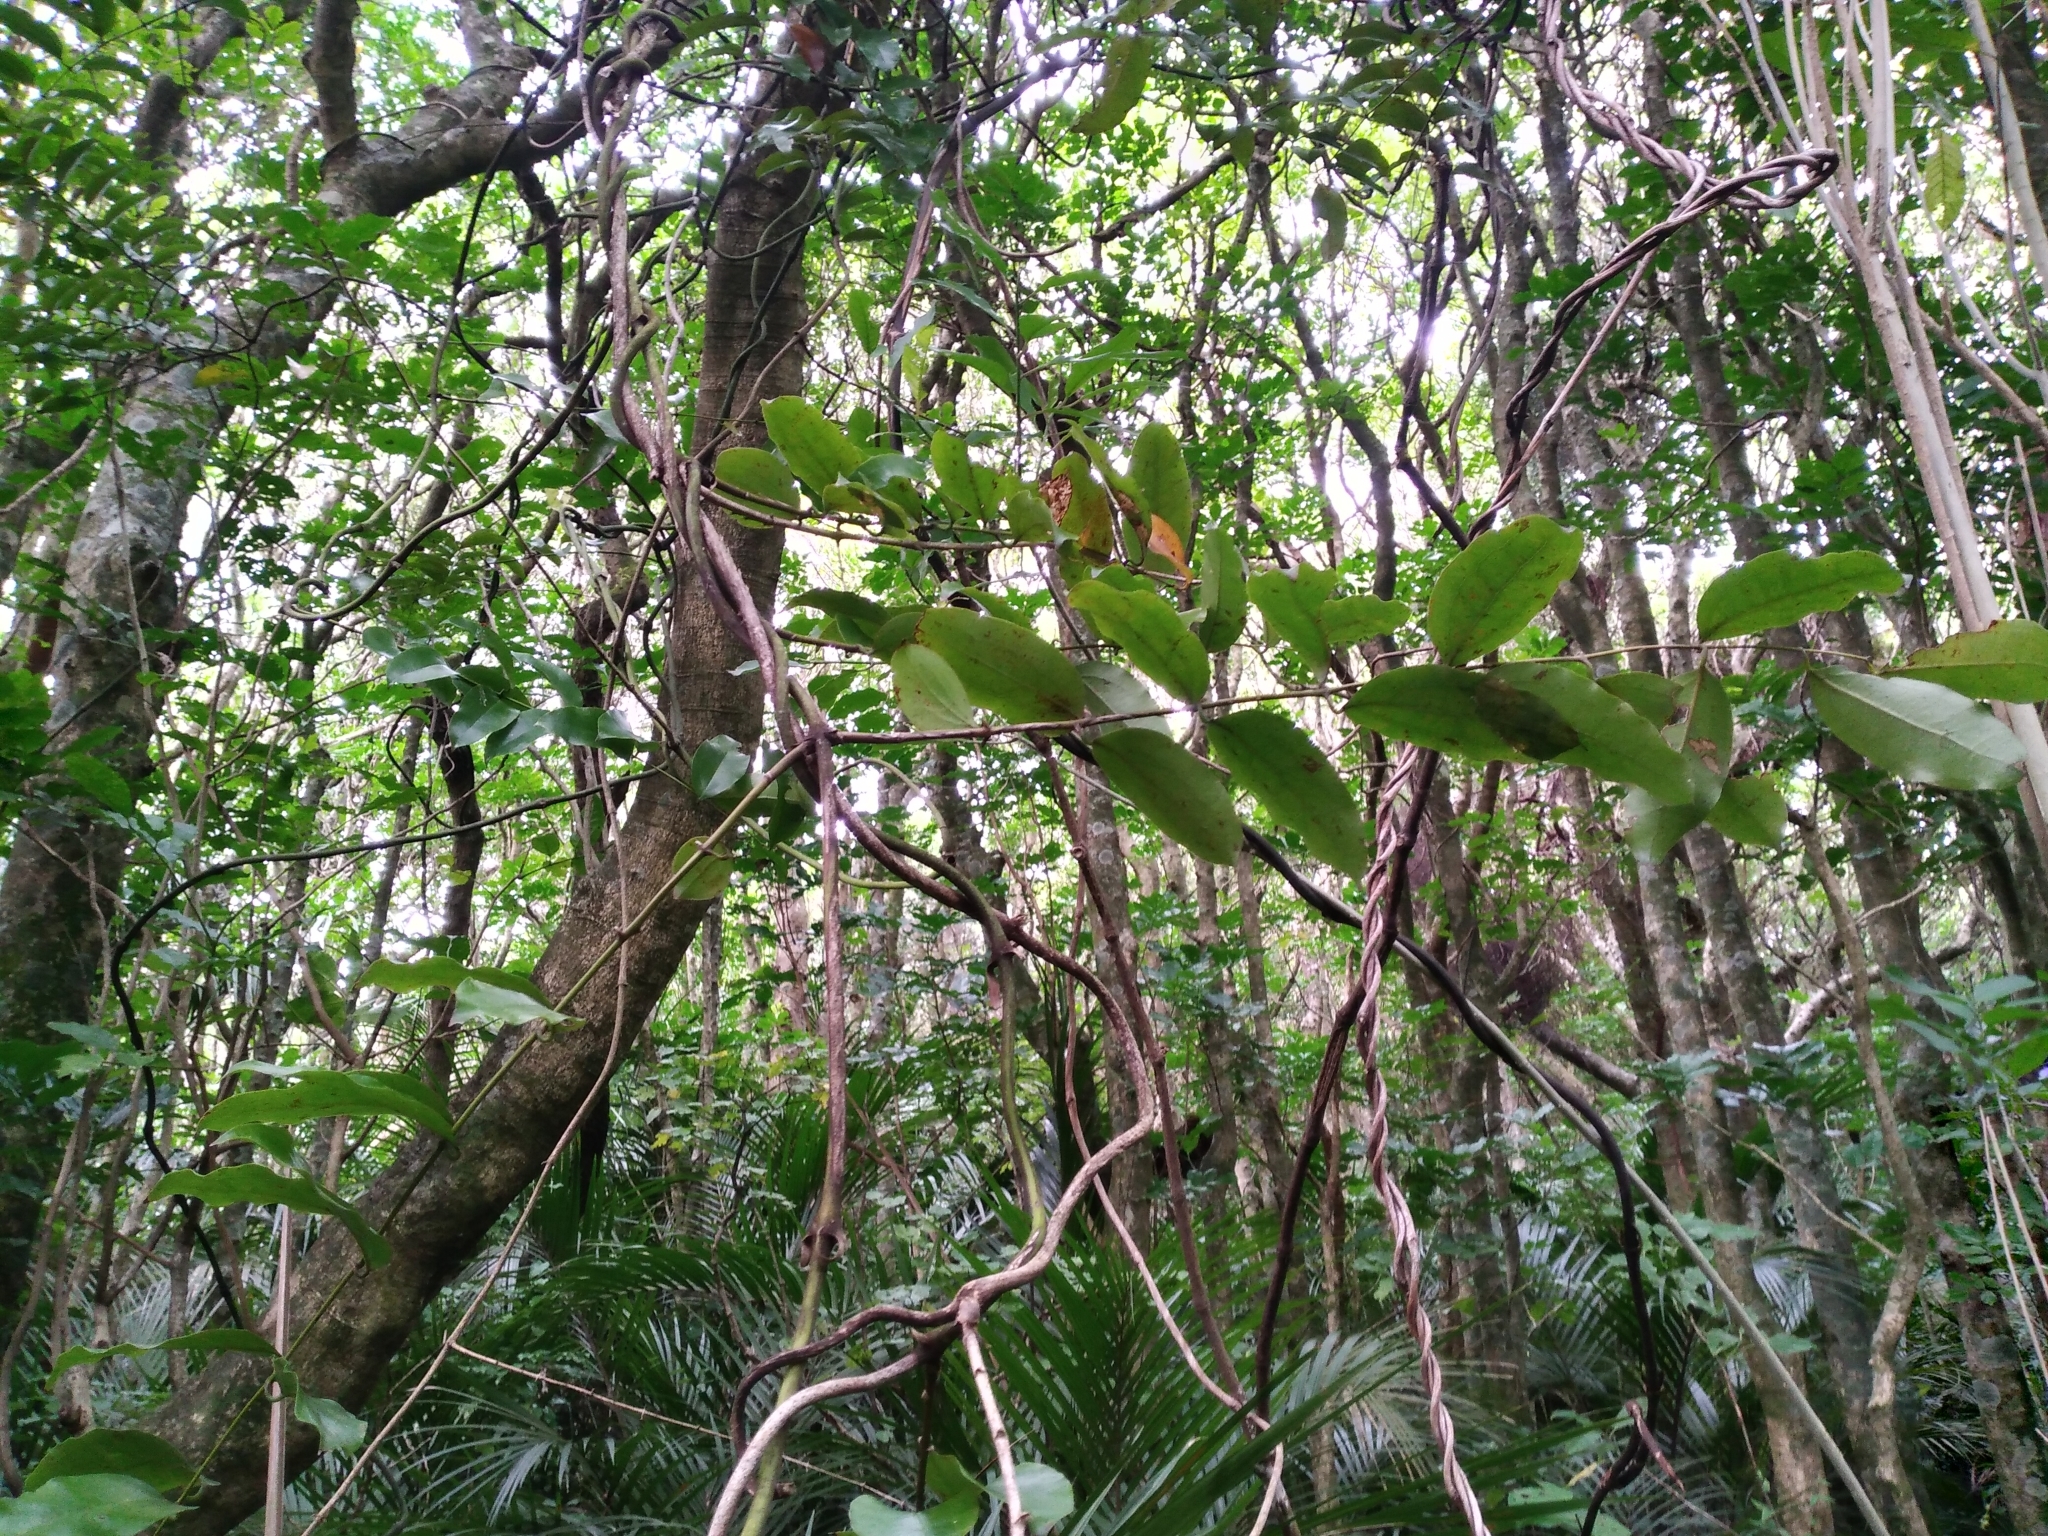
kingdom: Plantae
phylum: Tracheophyta
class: Liliopsida
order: Liliales
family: Ripogonaceae
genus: Ripogonum
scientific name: Ripogonum scandens
